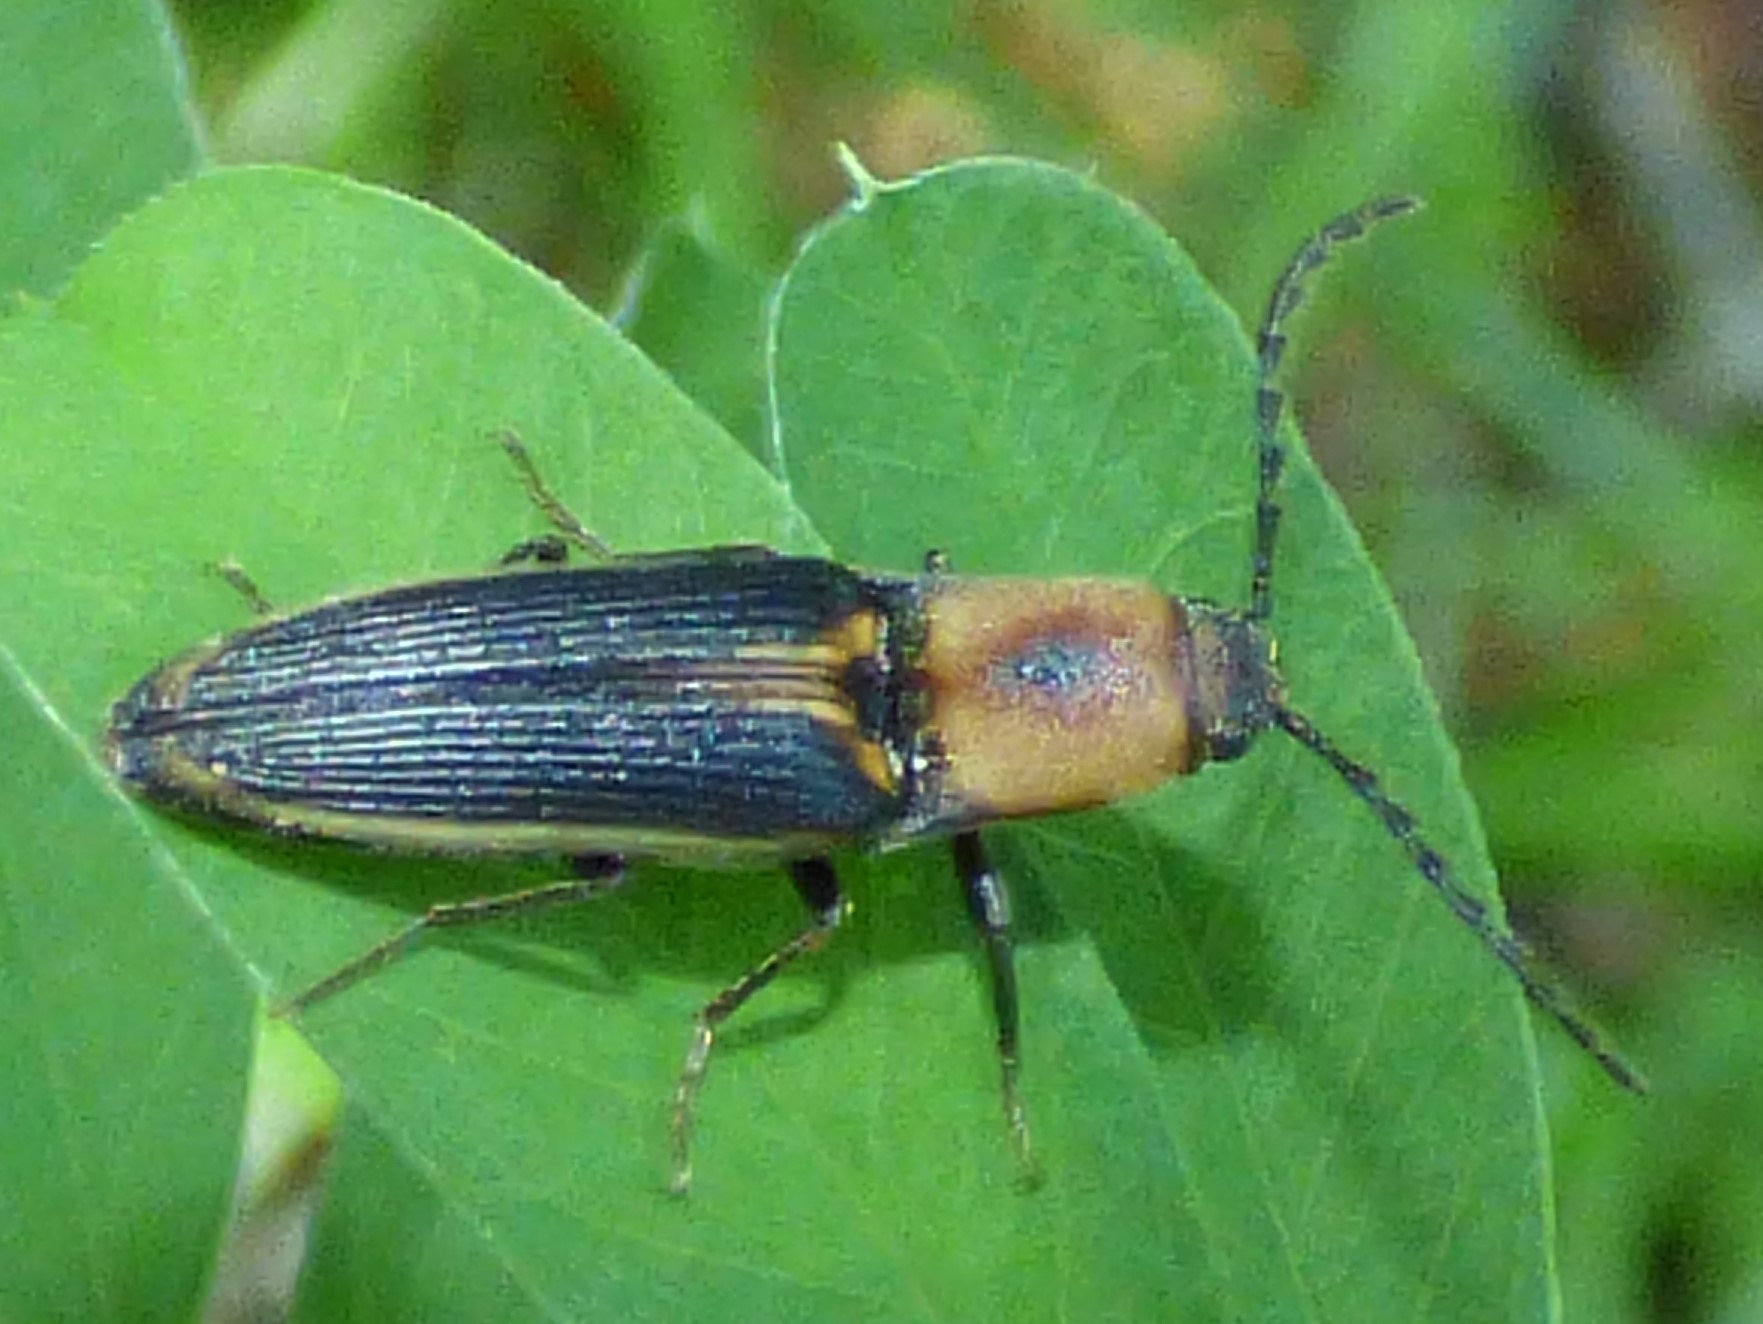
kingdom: Animalia
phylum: Arthropoda
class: Insecta
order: Coleoptera
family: Elateridae
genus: Megapenthes
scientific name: Megapenthes
